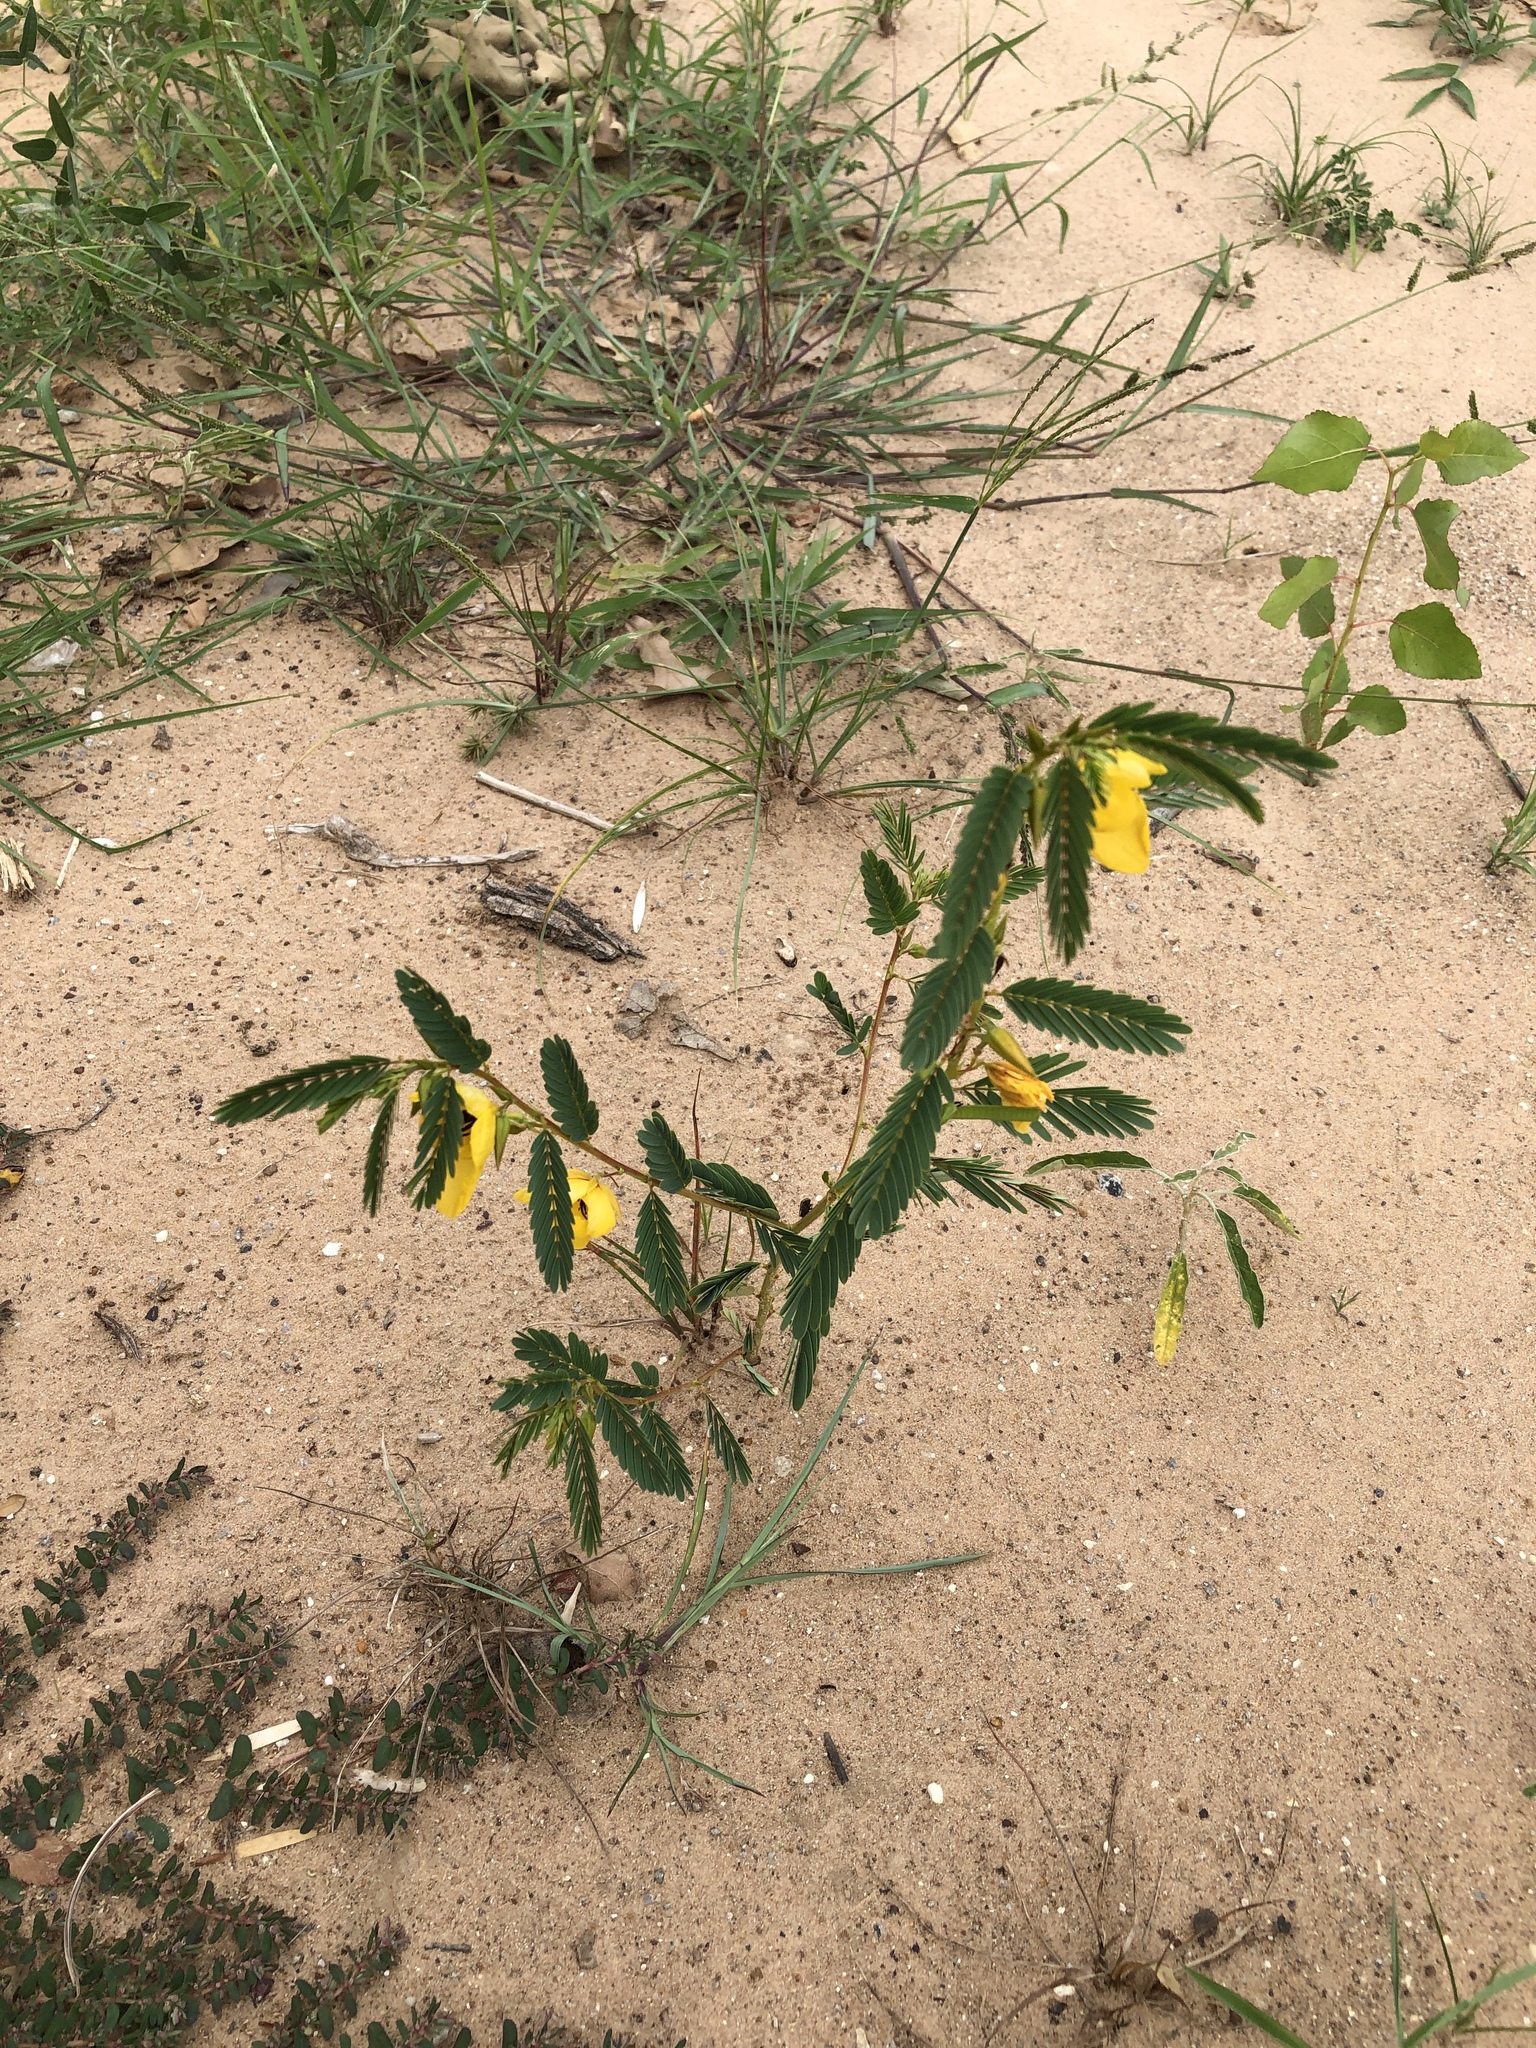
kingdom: Plantae
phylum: Tracheophyta
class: Magnoliopsida
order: Fabales
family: Fabaceae
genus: Chamaecrista
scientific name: Chamaecrista fasciculata
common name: Golden cassia
